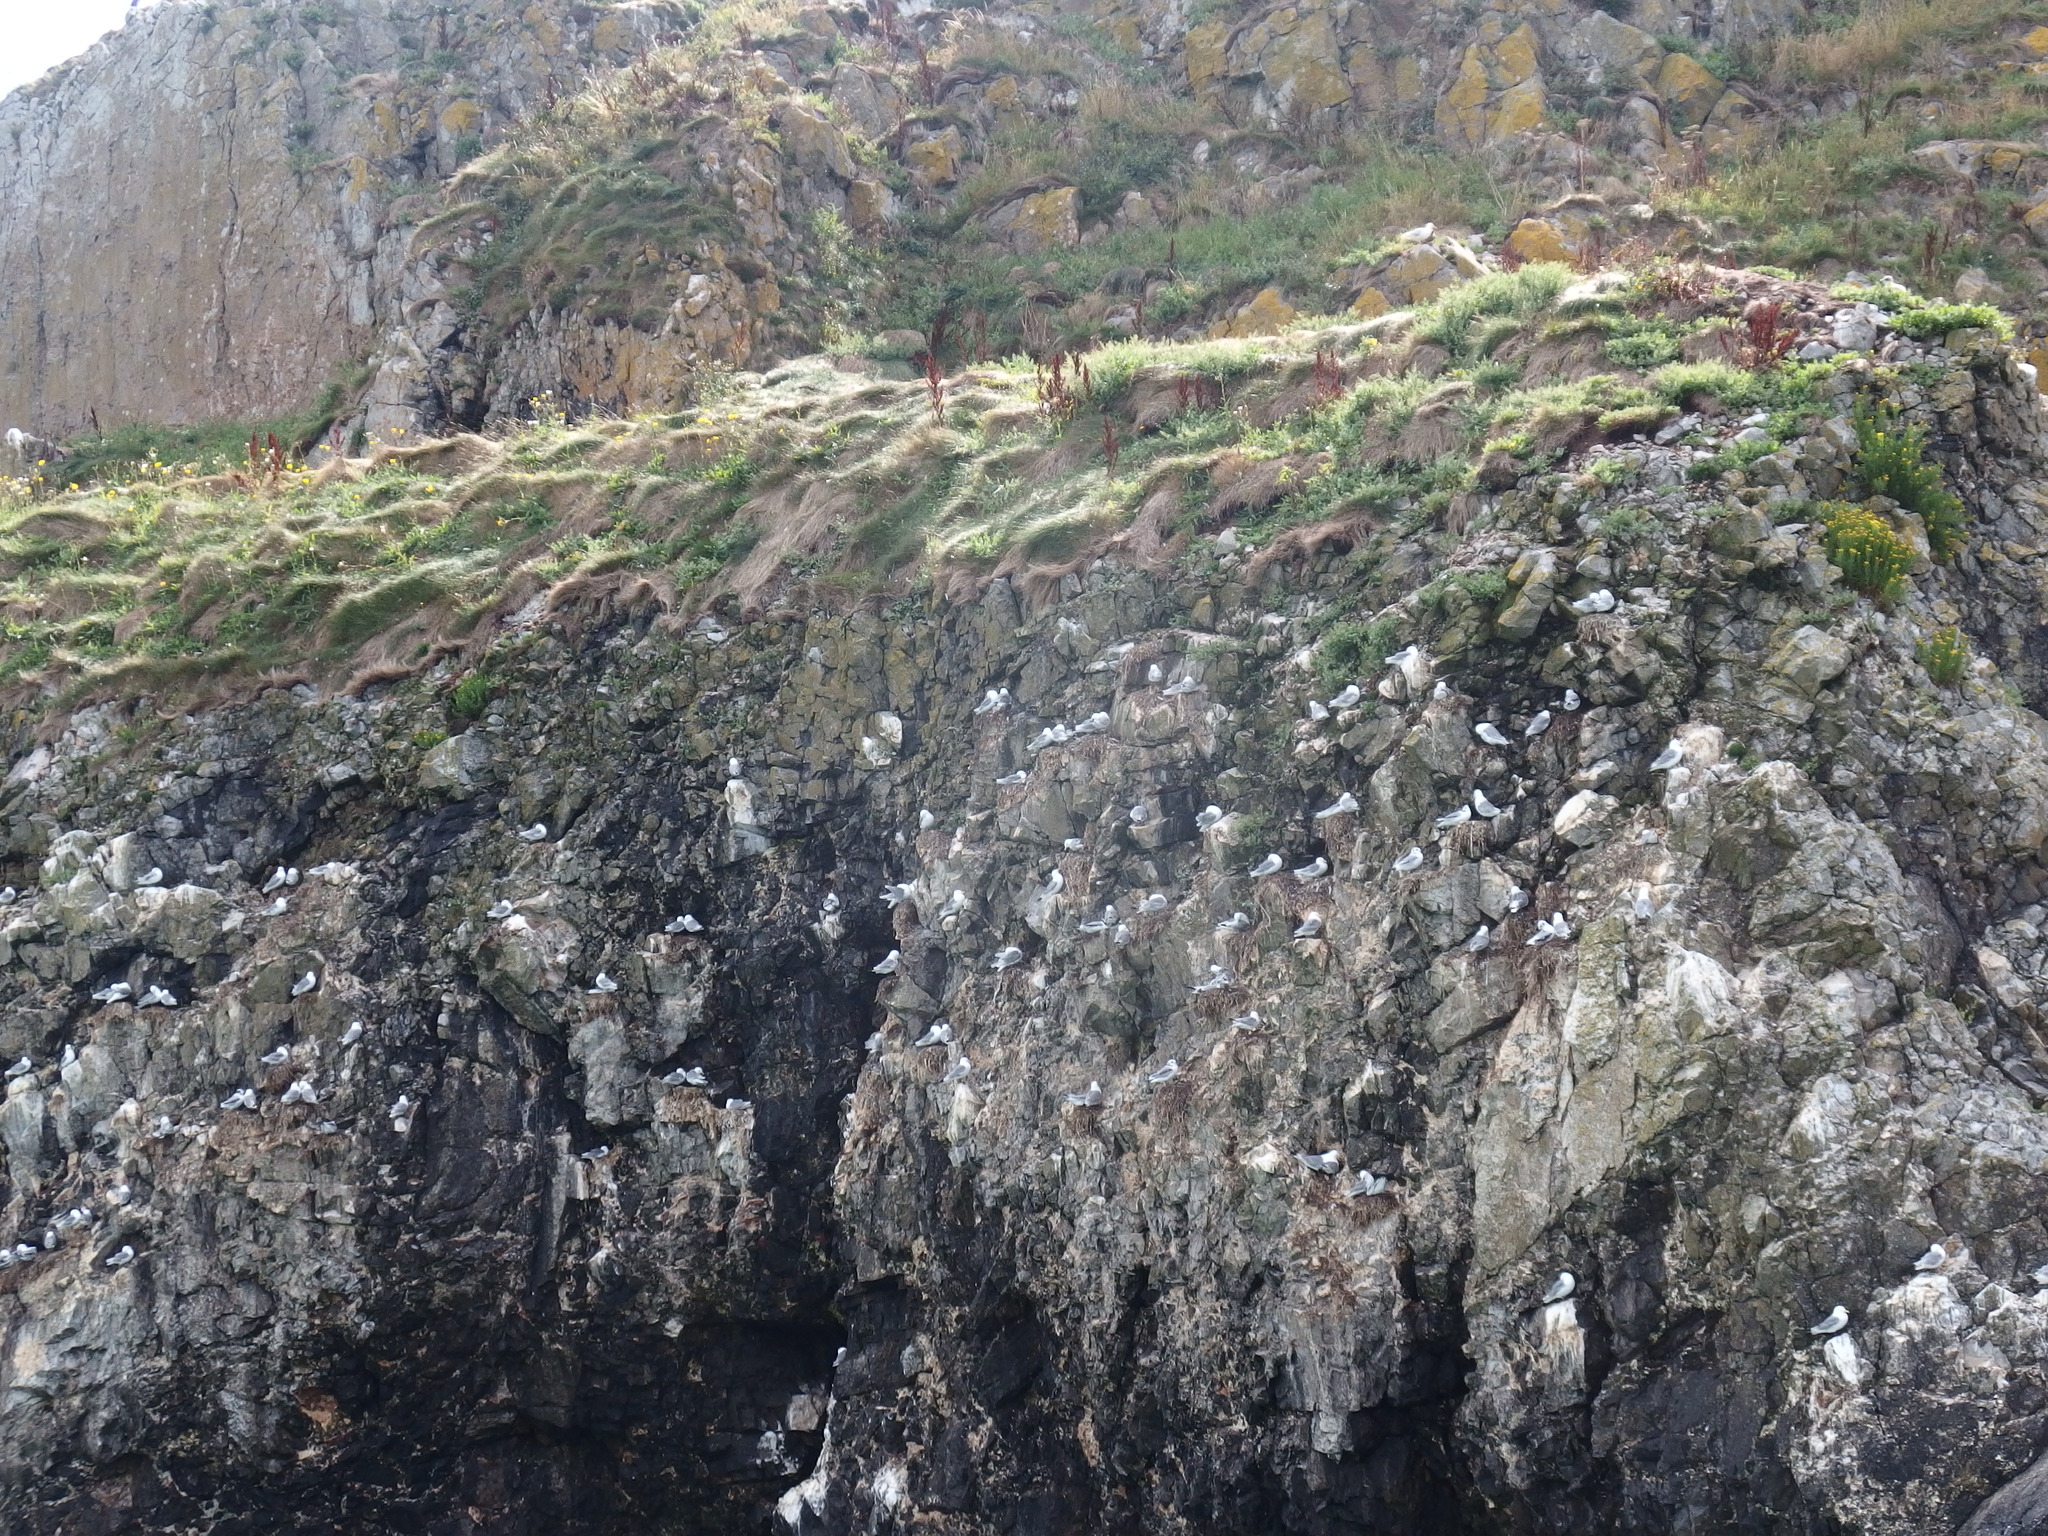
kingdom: Animalia
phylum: Chordata
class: Aves
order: Charadriiformes
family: Laridae
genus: Rissa
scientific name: Rissa tridactyla
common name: Black-legged kittiwake
